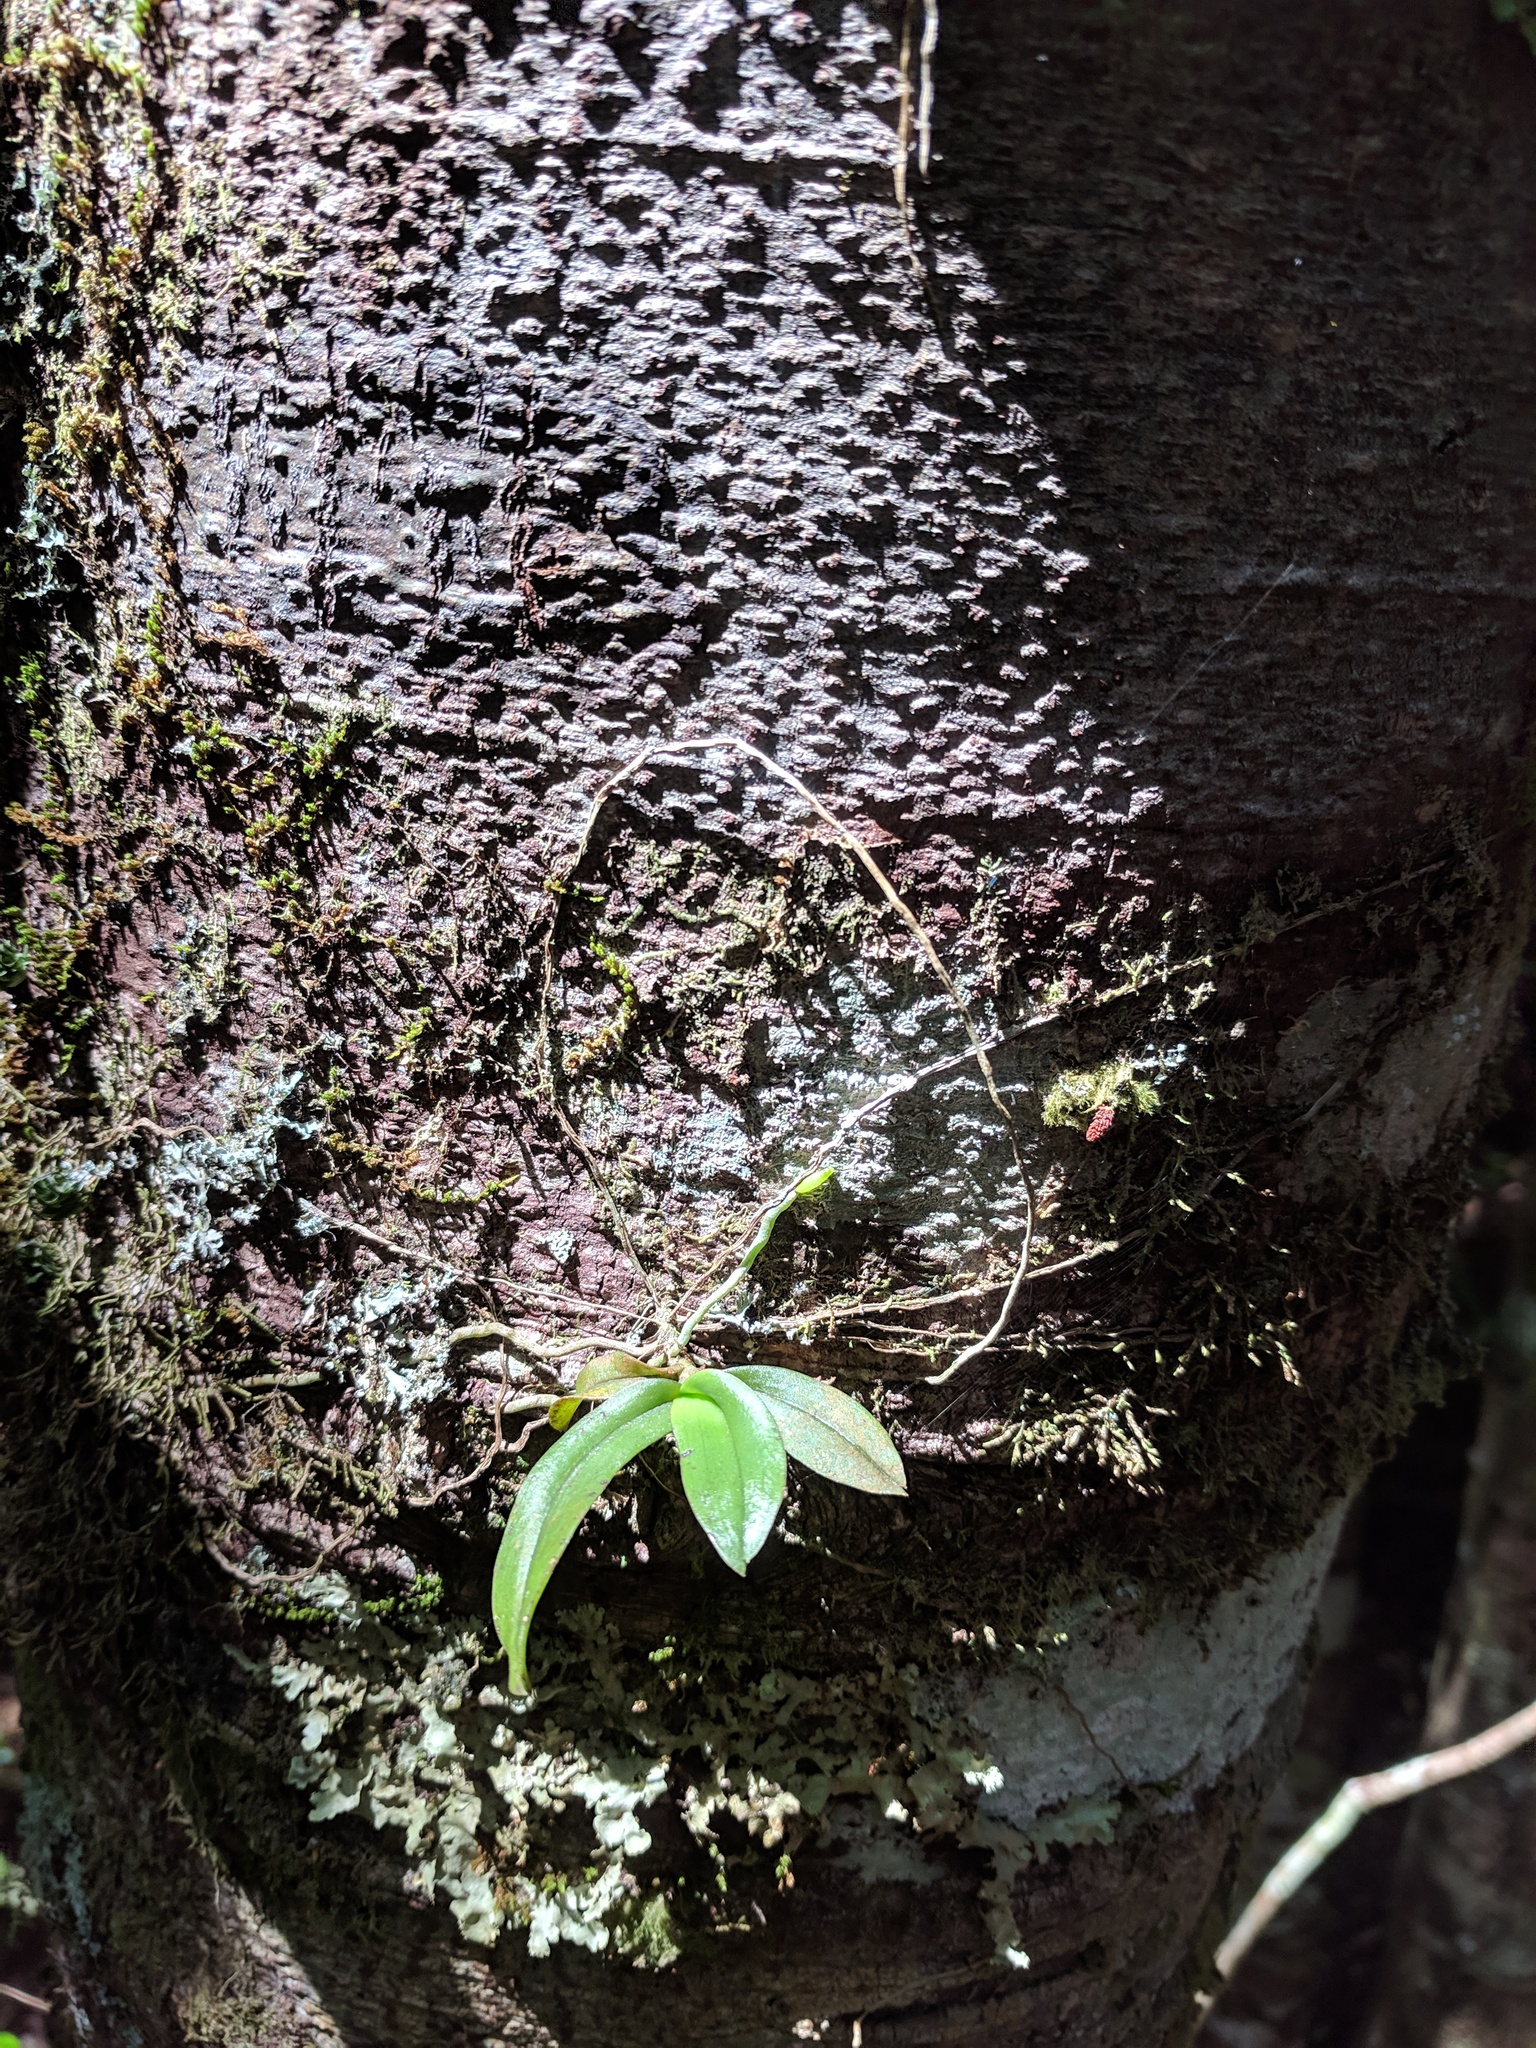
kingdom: Plantae
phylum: Tracheophyta
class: Liliopsida
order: Asparagales
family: Orchidaceae
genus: Drymoanthus
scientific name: Drymoanthus adversus
